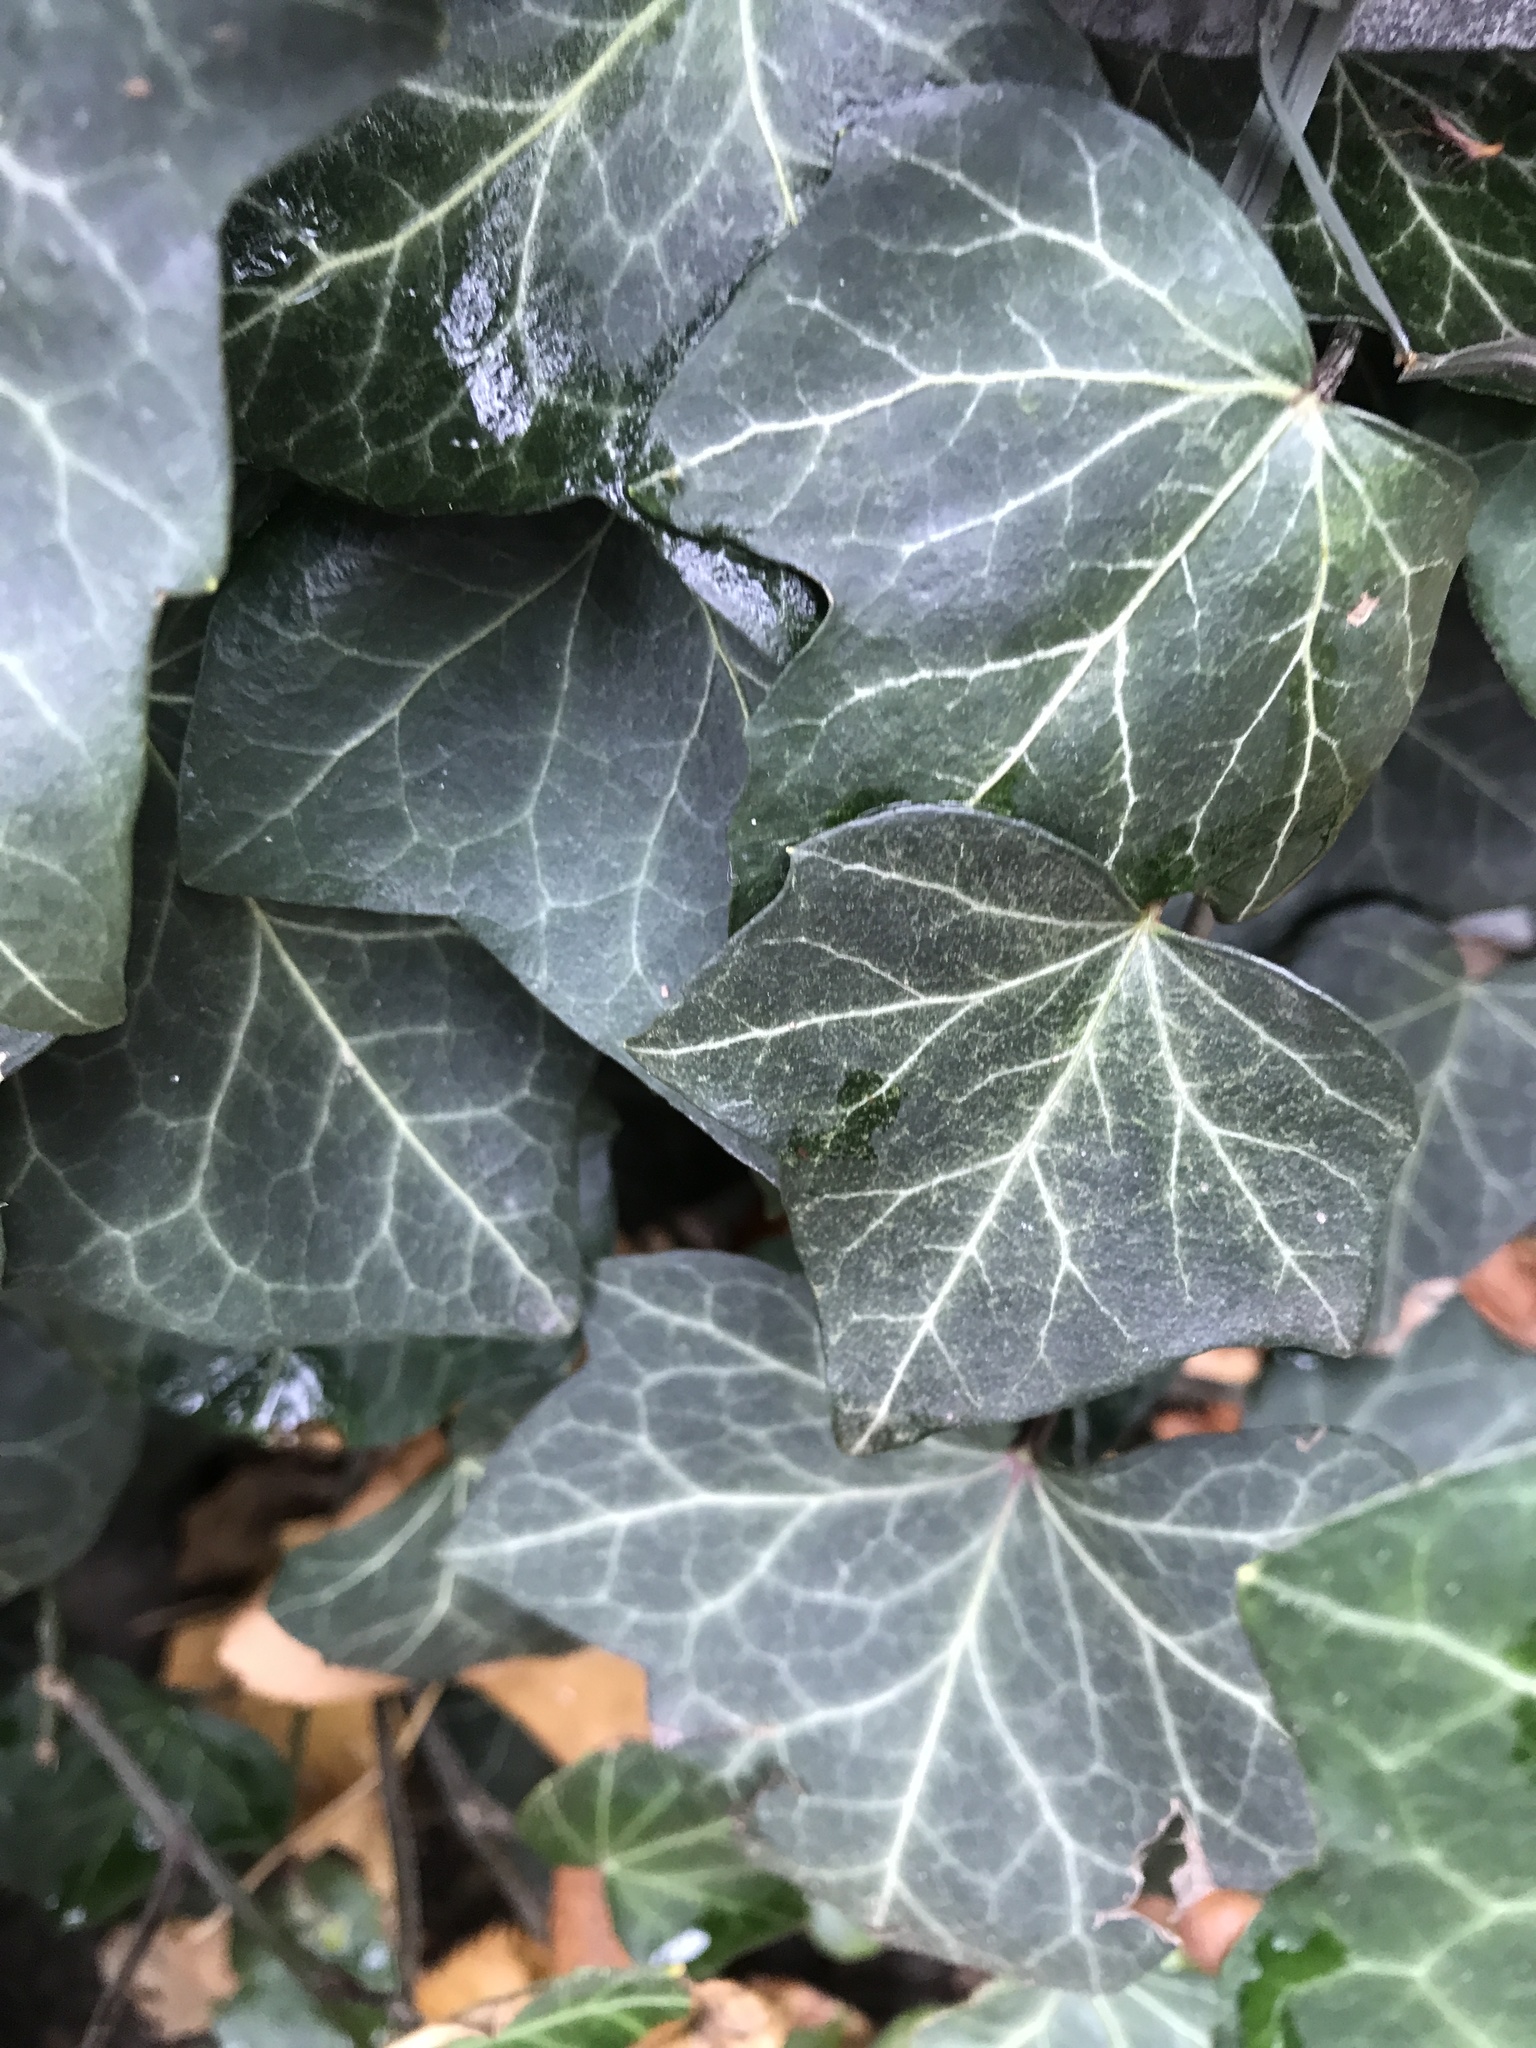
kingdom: Plantae
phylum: Tracheophyta
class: Magnoliopsida
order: Apiales
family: Araliaceae
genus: Hedera
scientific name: Hedera helix
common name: Ivy
